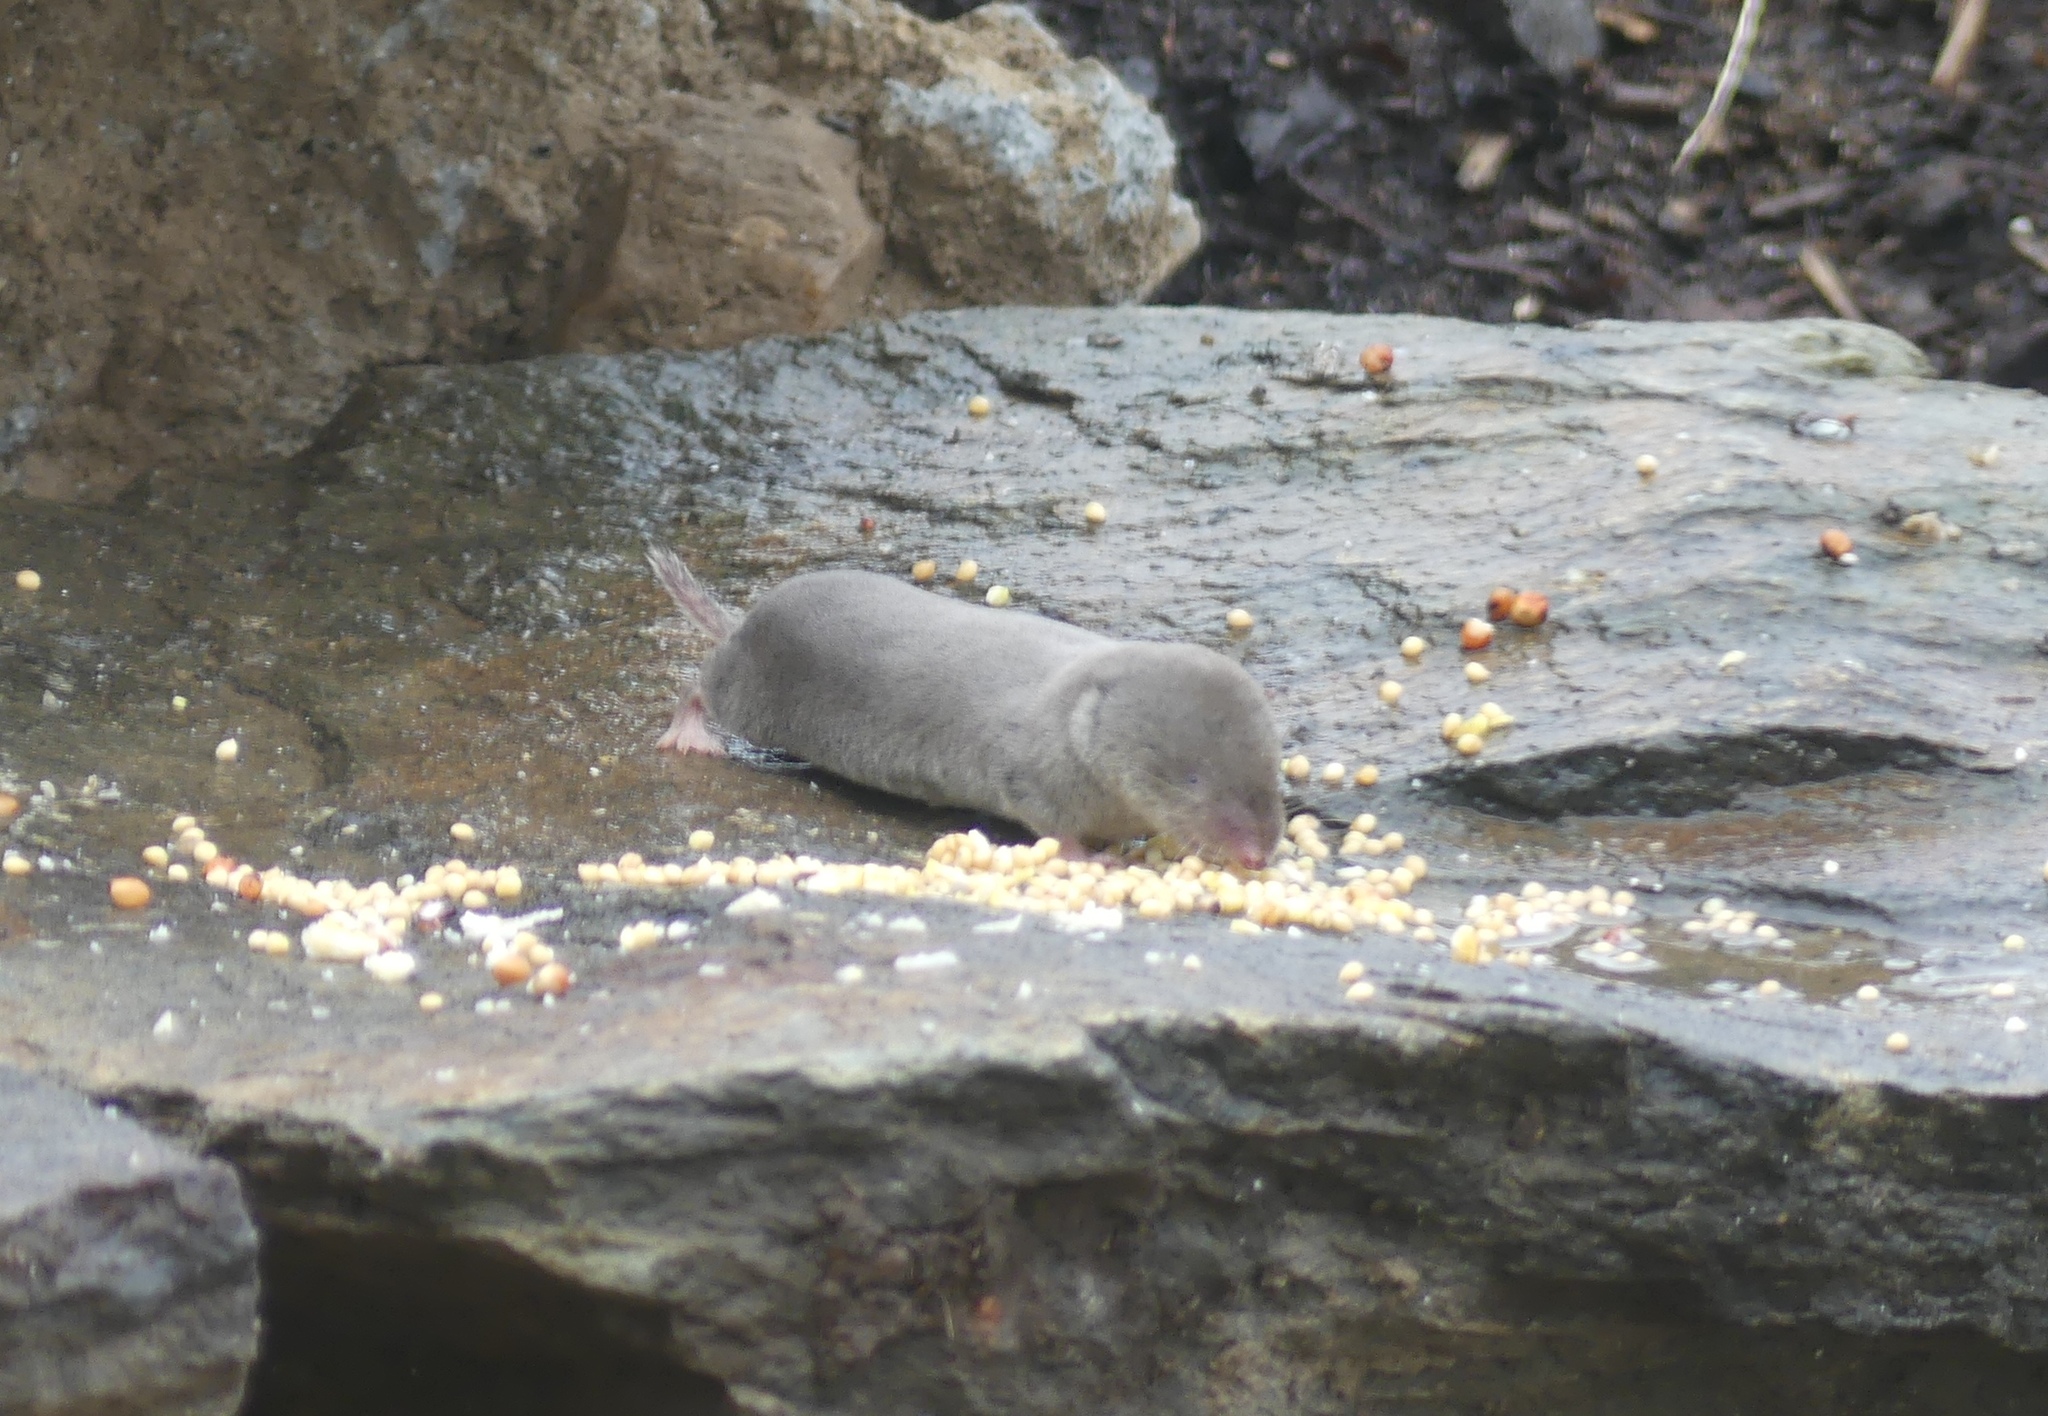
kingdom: Animalia
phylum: Chordata
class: Mammalia
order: Soricomorpha
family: Soricidae
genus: Blarina
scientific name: Blarina brevicauda
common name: Northern short-tailed shrew
